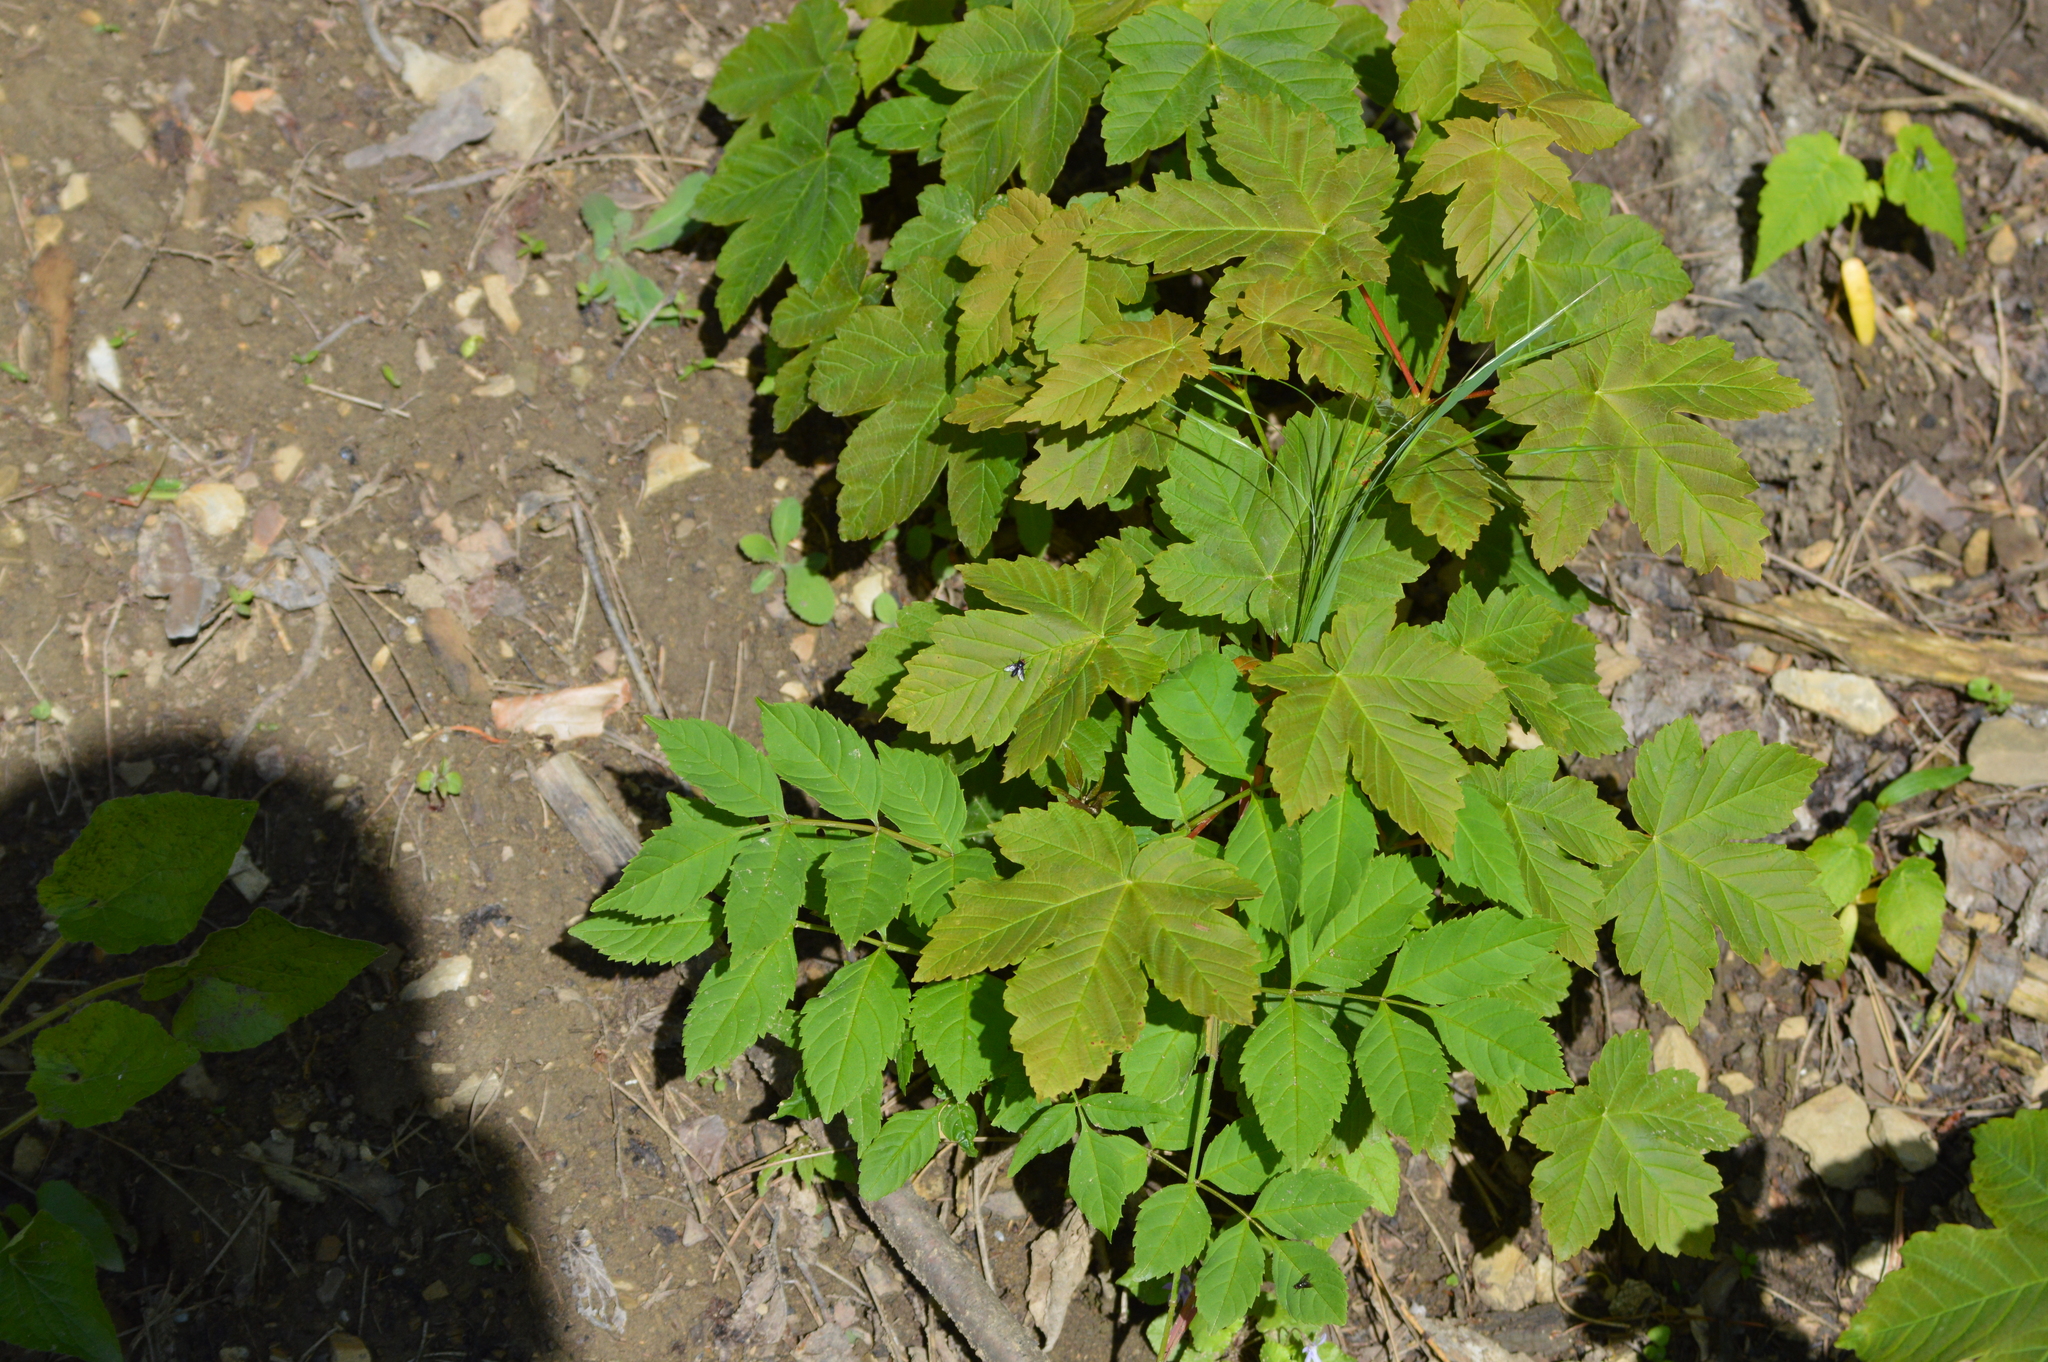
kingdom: Plantae
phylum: Tracheophyta
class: Magnoliopsida
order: Sapindales
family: Sapindaceae
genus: Acer
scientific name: Acer pseudoplatanus
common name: Sycamore
